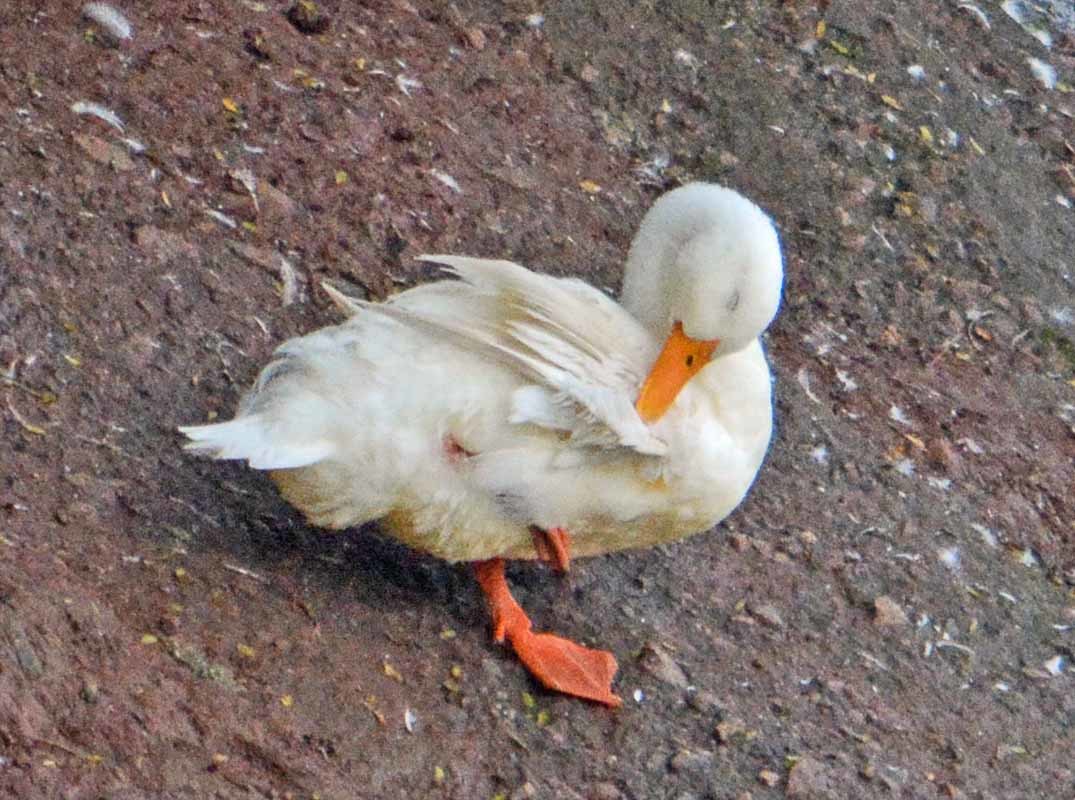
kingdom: Animalia
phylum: Chordata
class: Aves
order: Anseriformes
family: Anatidae
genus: Anas
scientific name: Anas platyrhynchos
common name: Mallard
